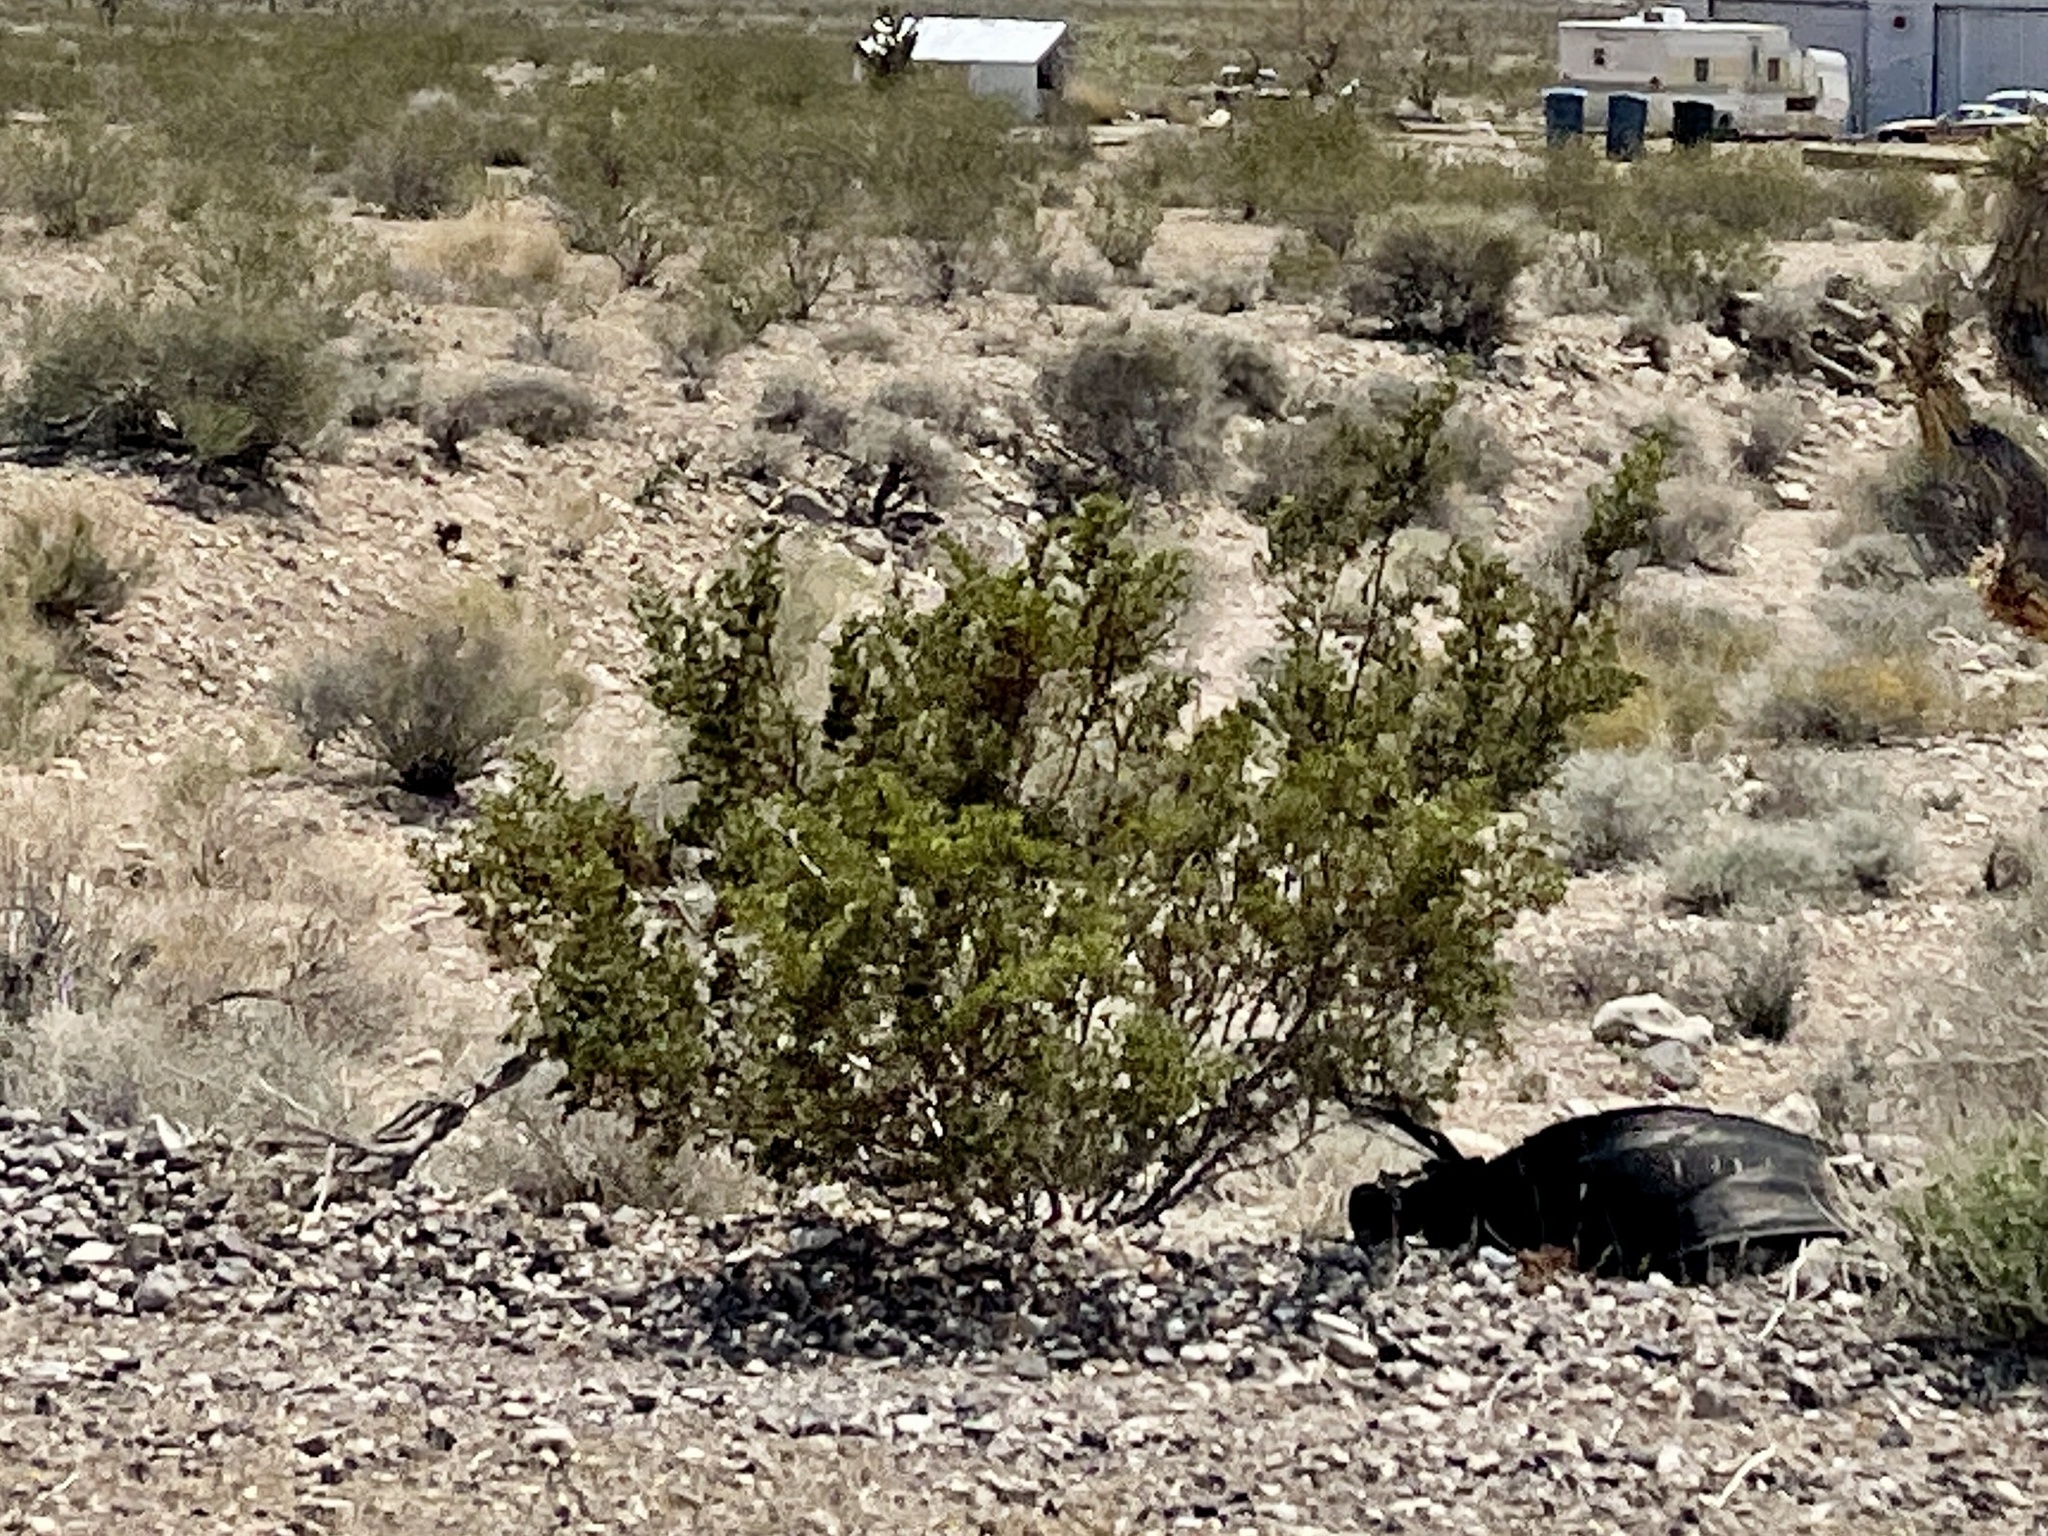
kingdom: Plantae
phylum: Tracheophyta
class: Magnoliopsida
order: Zygophyllales
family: Zygophyllaceae
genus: Larrea
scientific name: Larrea tridentata
